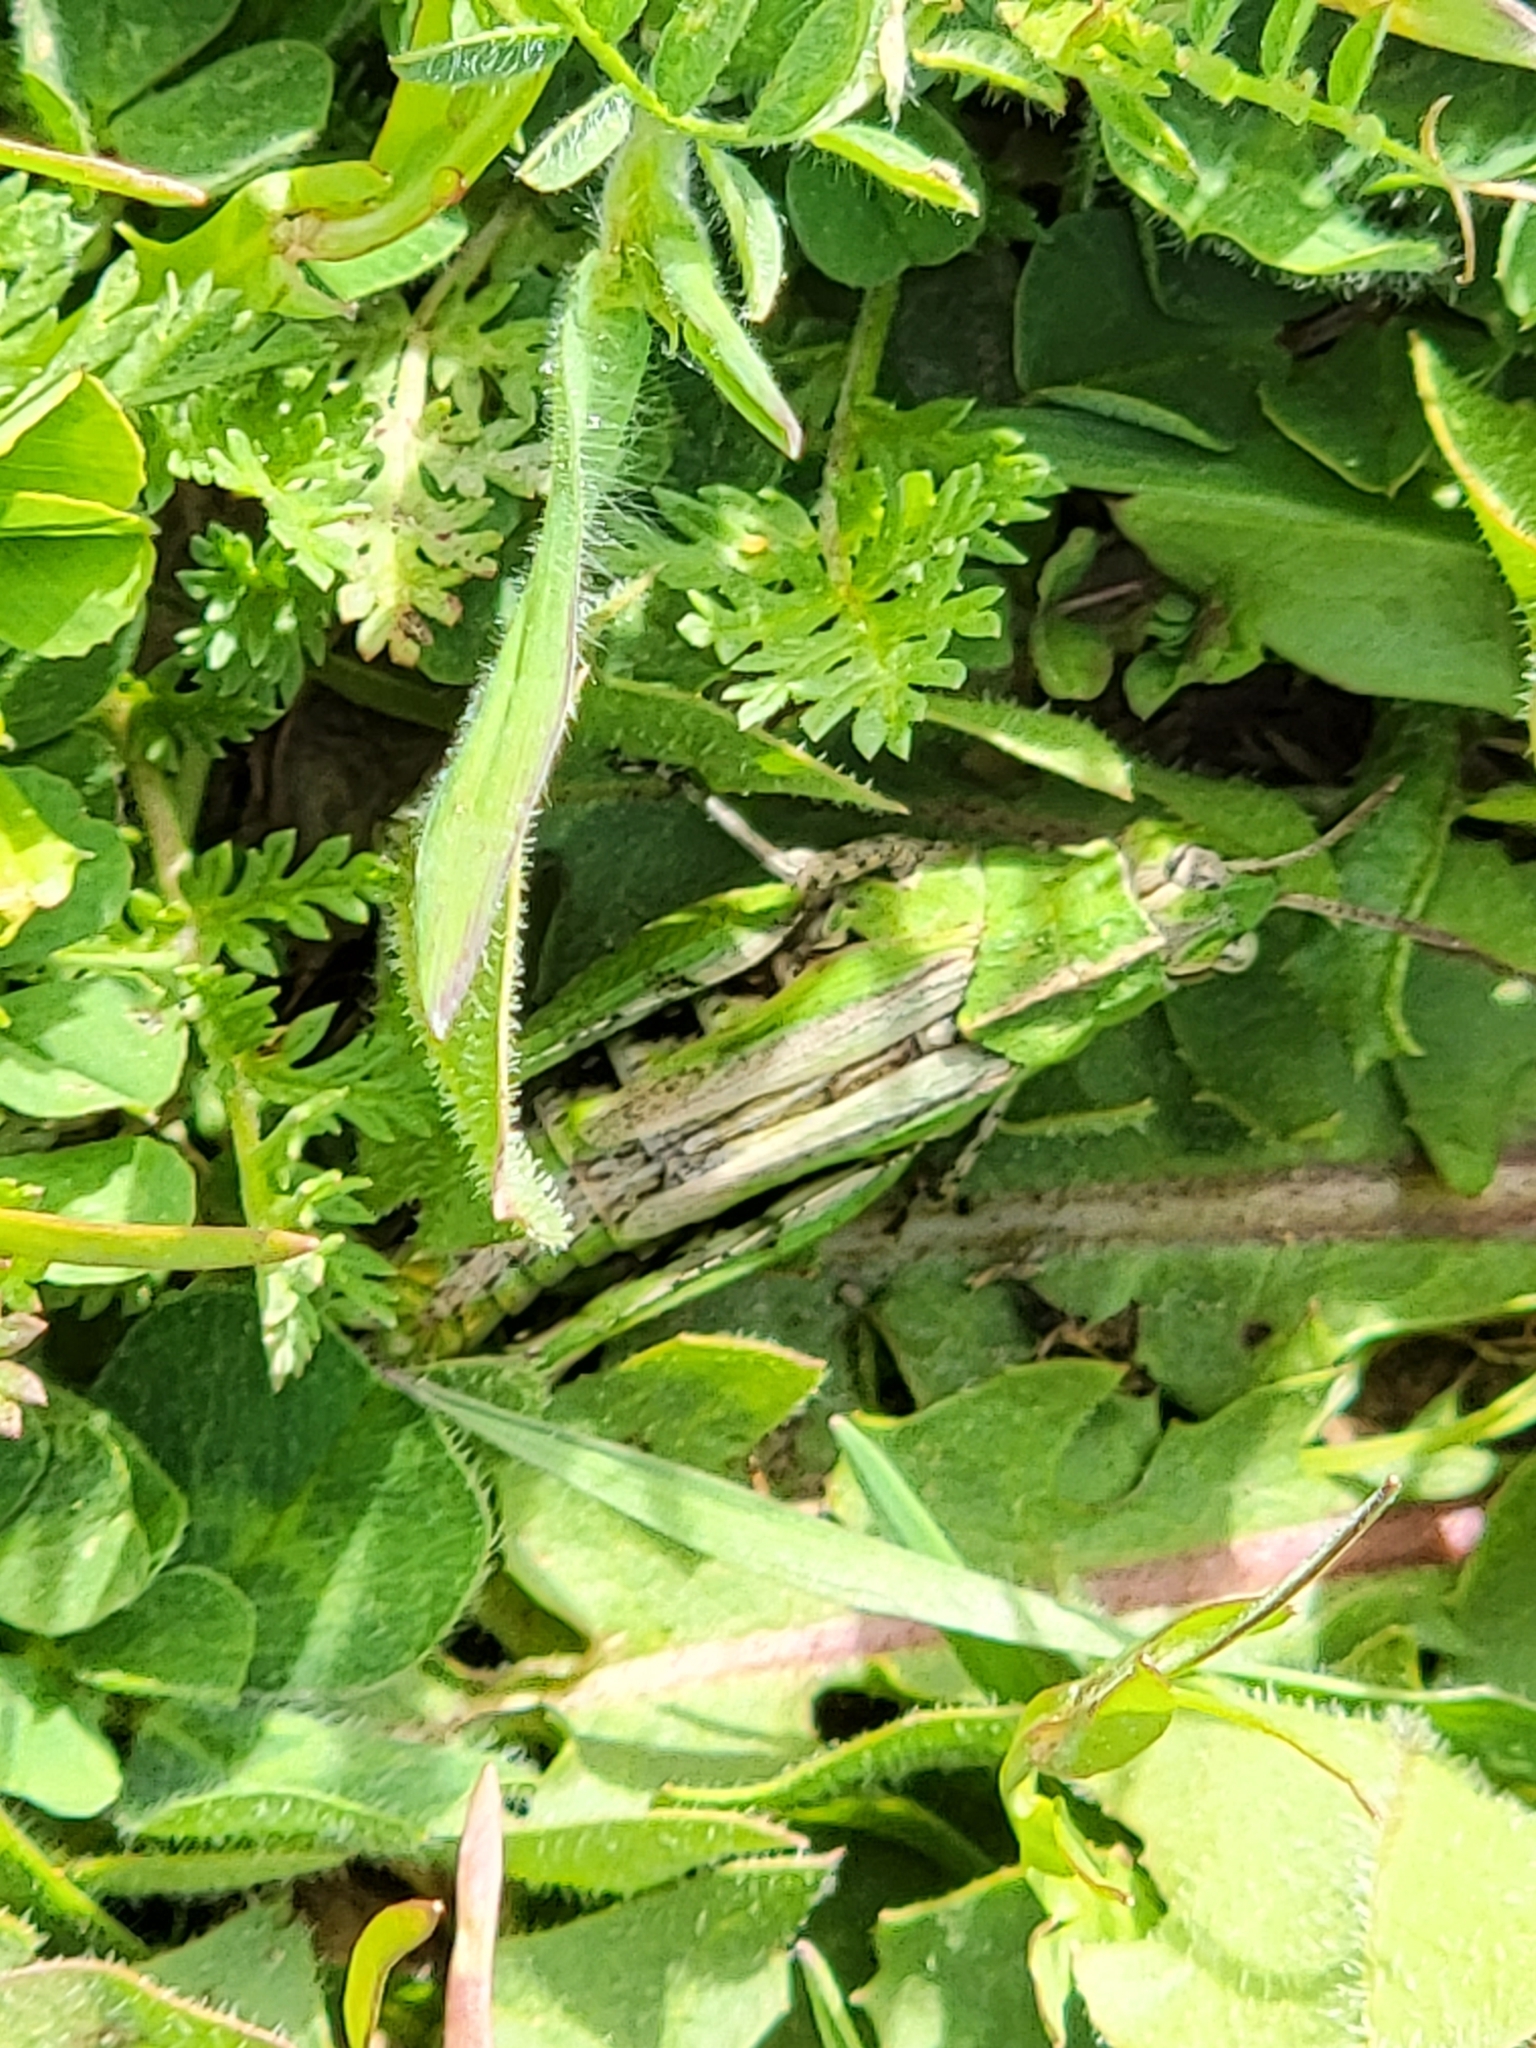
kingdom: Animalia
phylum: Arthropoda
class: Insecta
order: Orthoptera
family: Acrididae
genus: Chimarocephala
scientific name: Chimarocephala pacifica
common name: Painted meadow grasshopper
